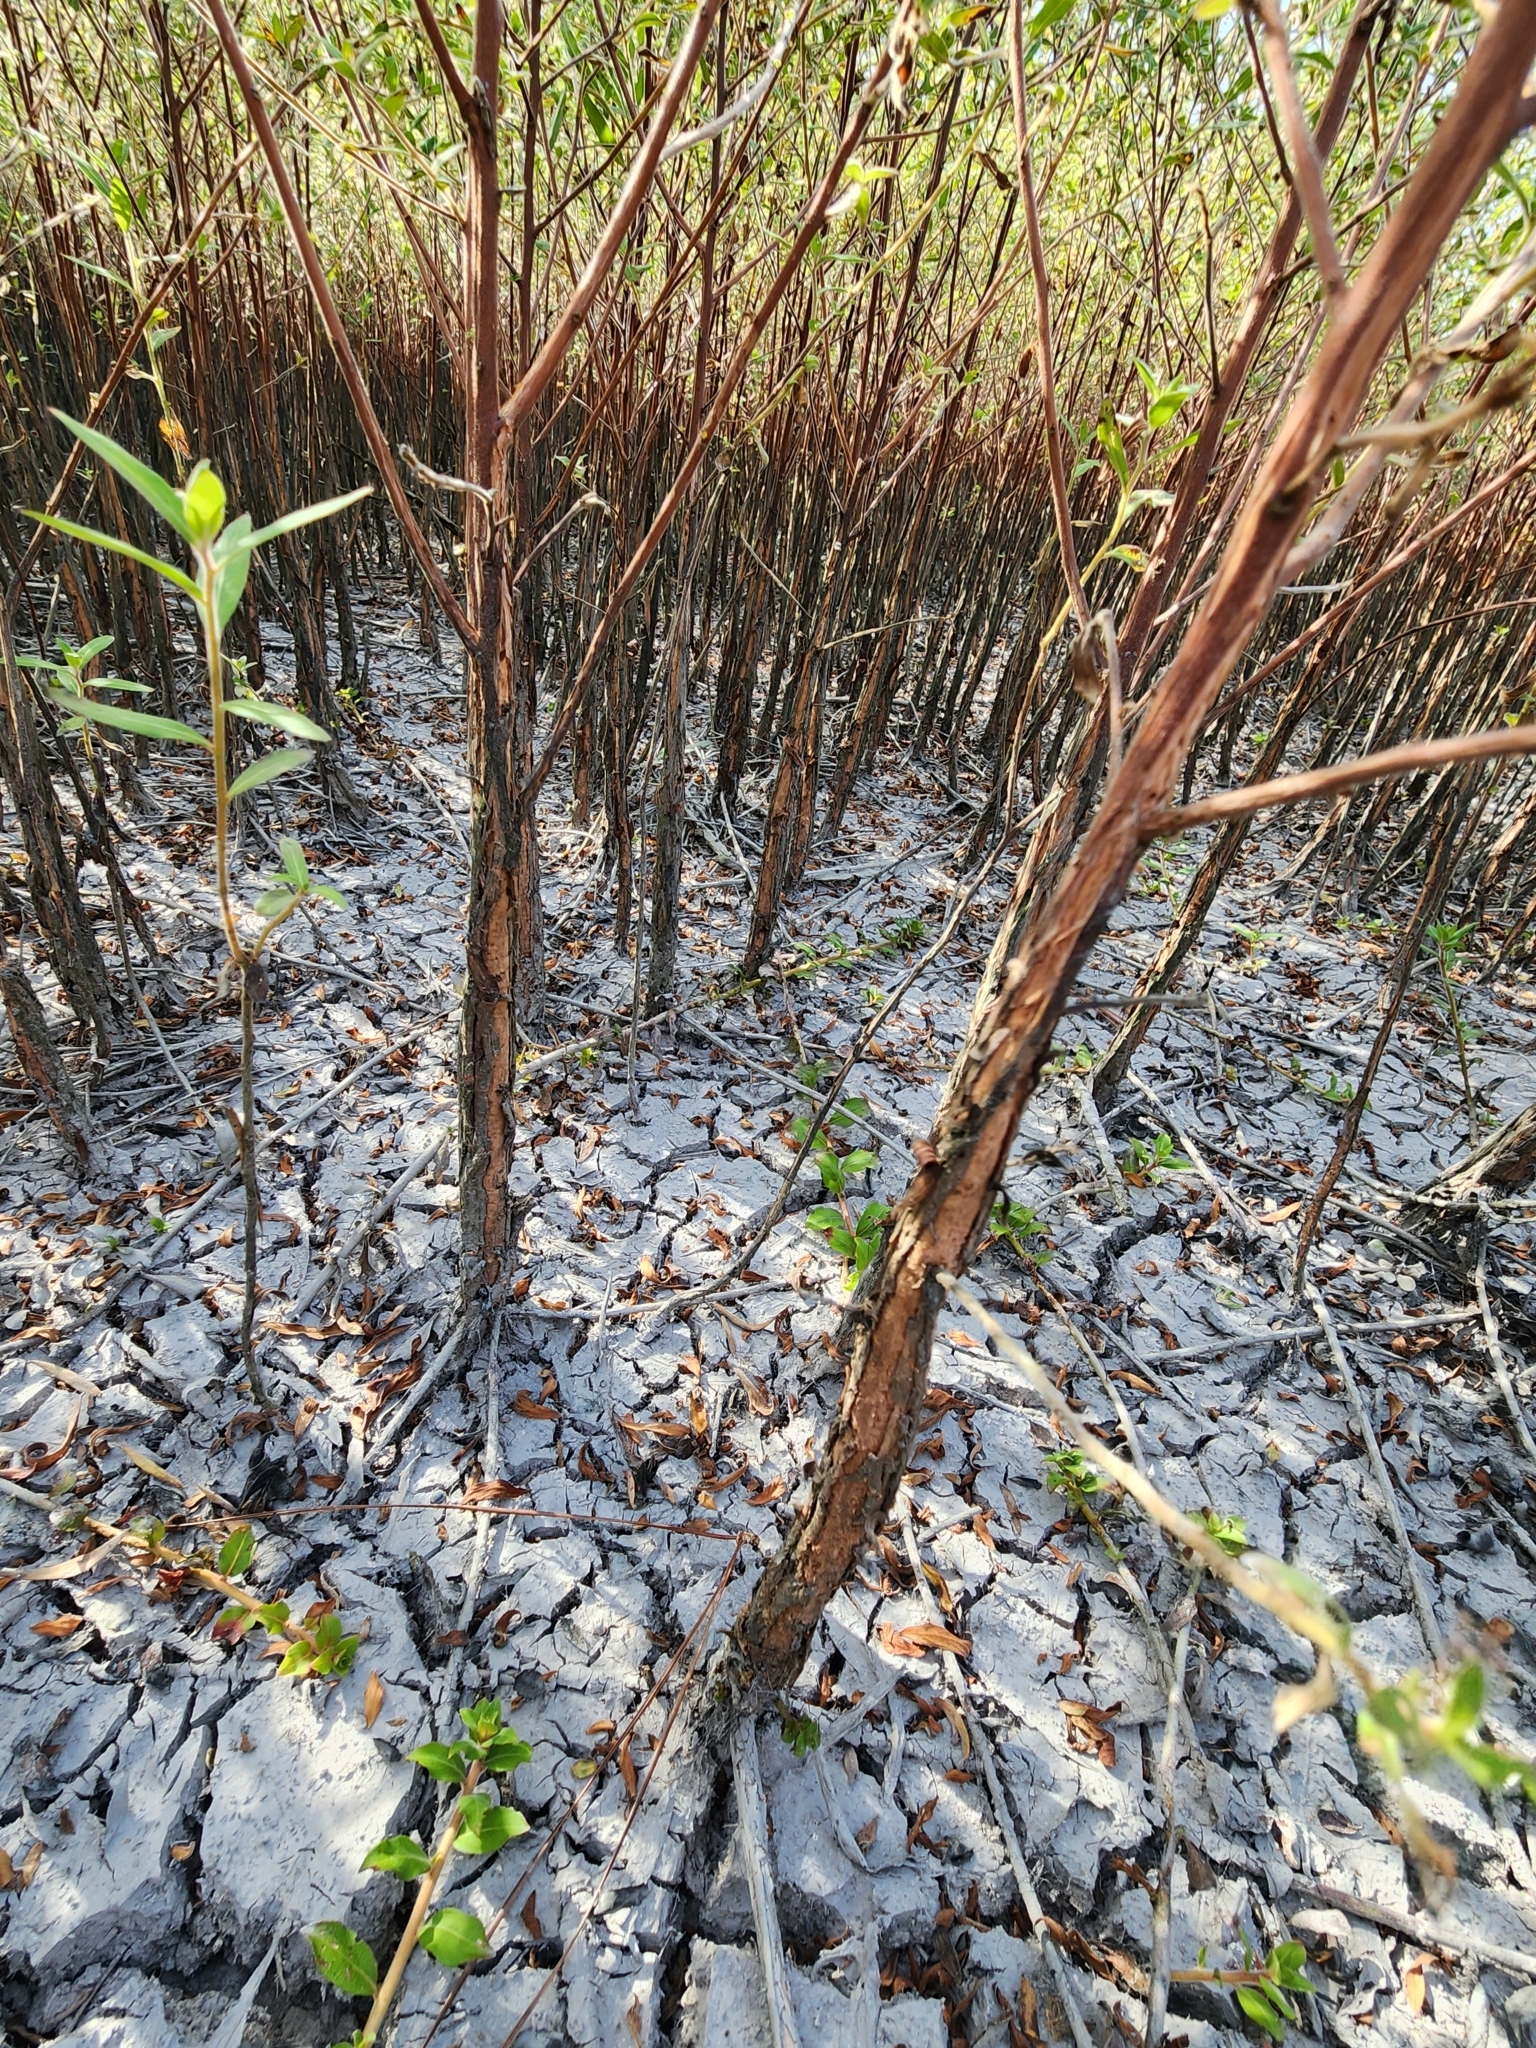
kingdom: Plantae
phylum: Tracheophyta
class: Magnoliopsida
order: Myrtales
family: Onagraceae
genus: Ludwigia
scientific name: Ludwigia pilosa
